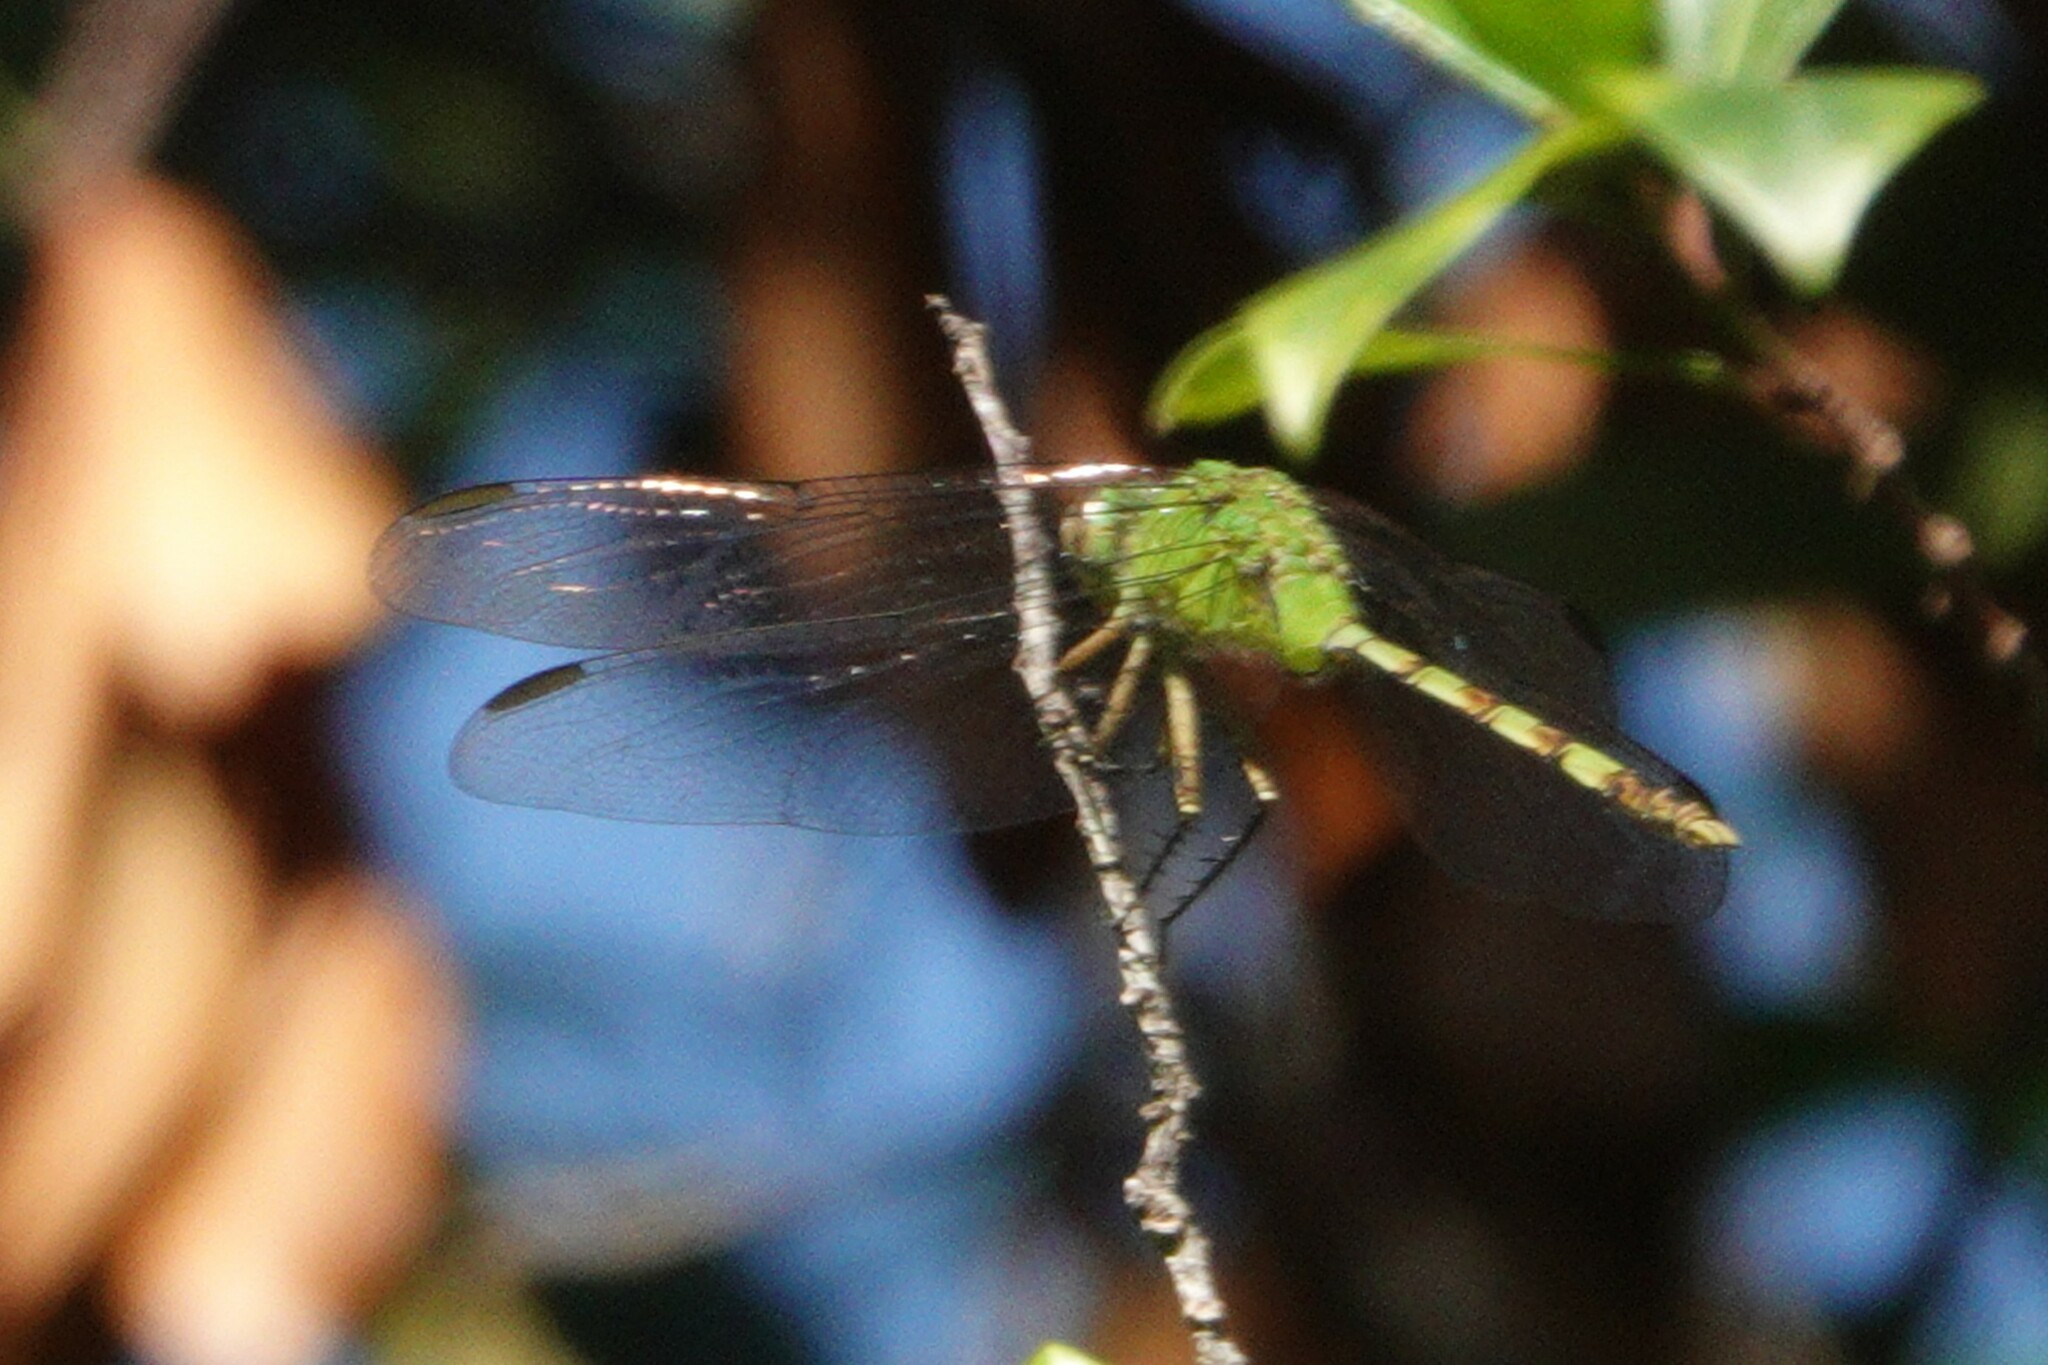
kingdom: Animalia
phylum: Arthropoda
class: Insecta
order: Odonata
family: Libellulidae
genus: Erythemis
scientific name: Erythemis vesiculosa
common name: Great pondhawk
